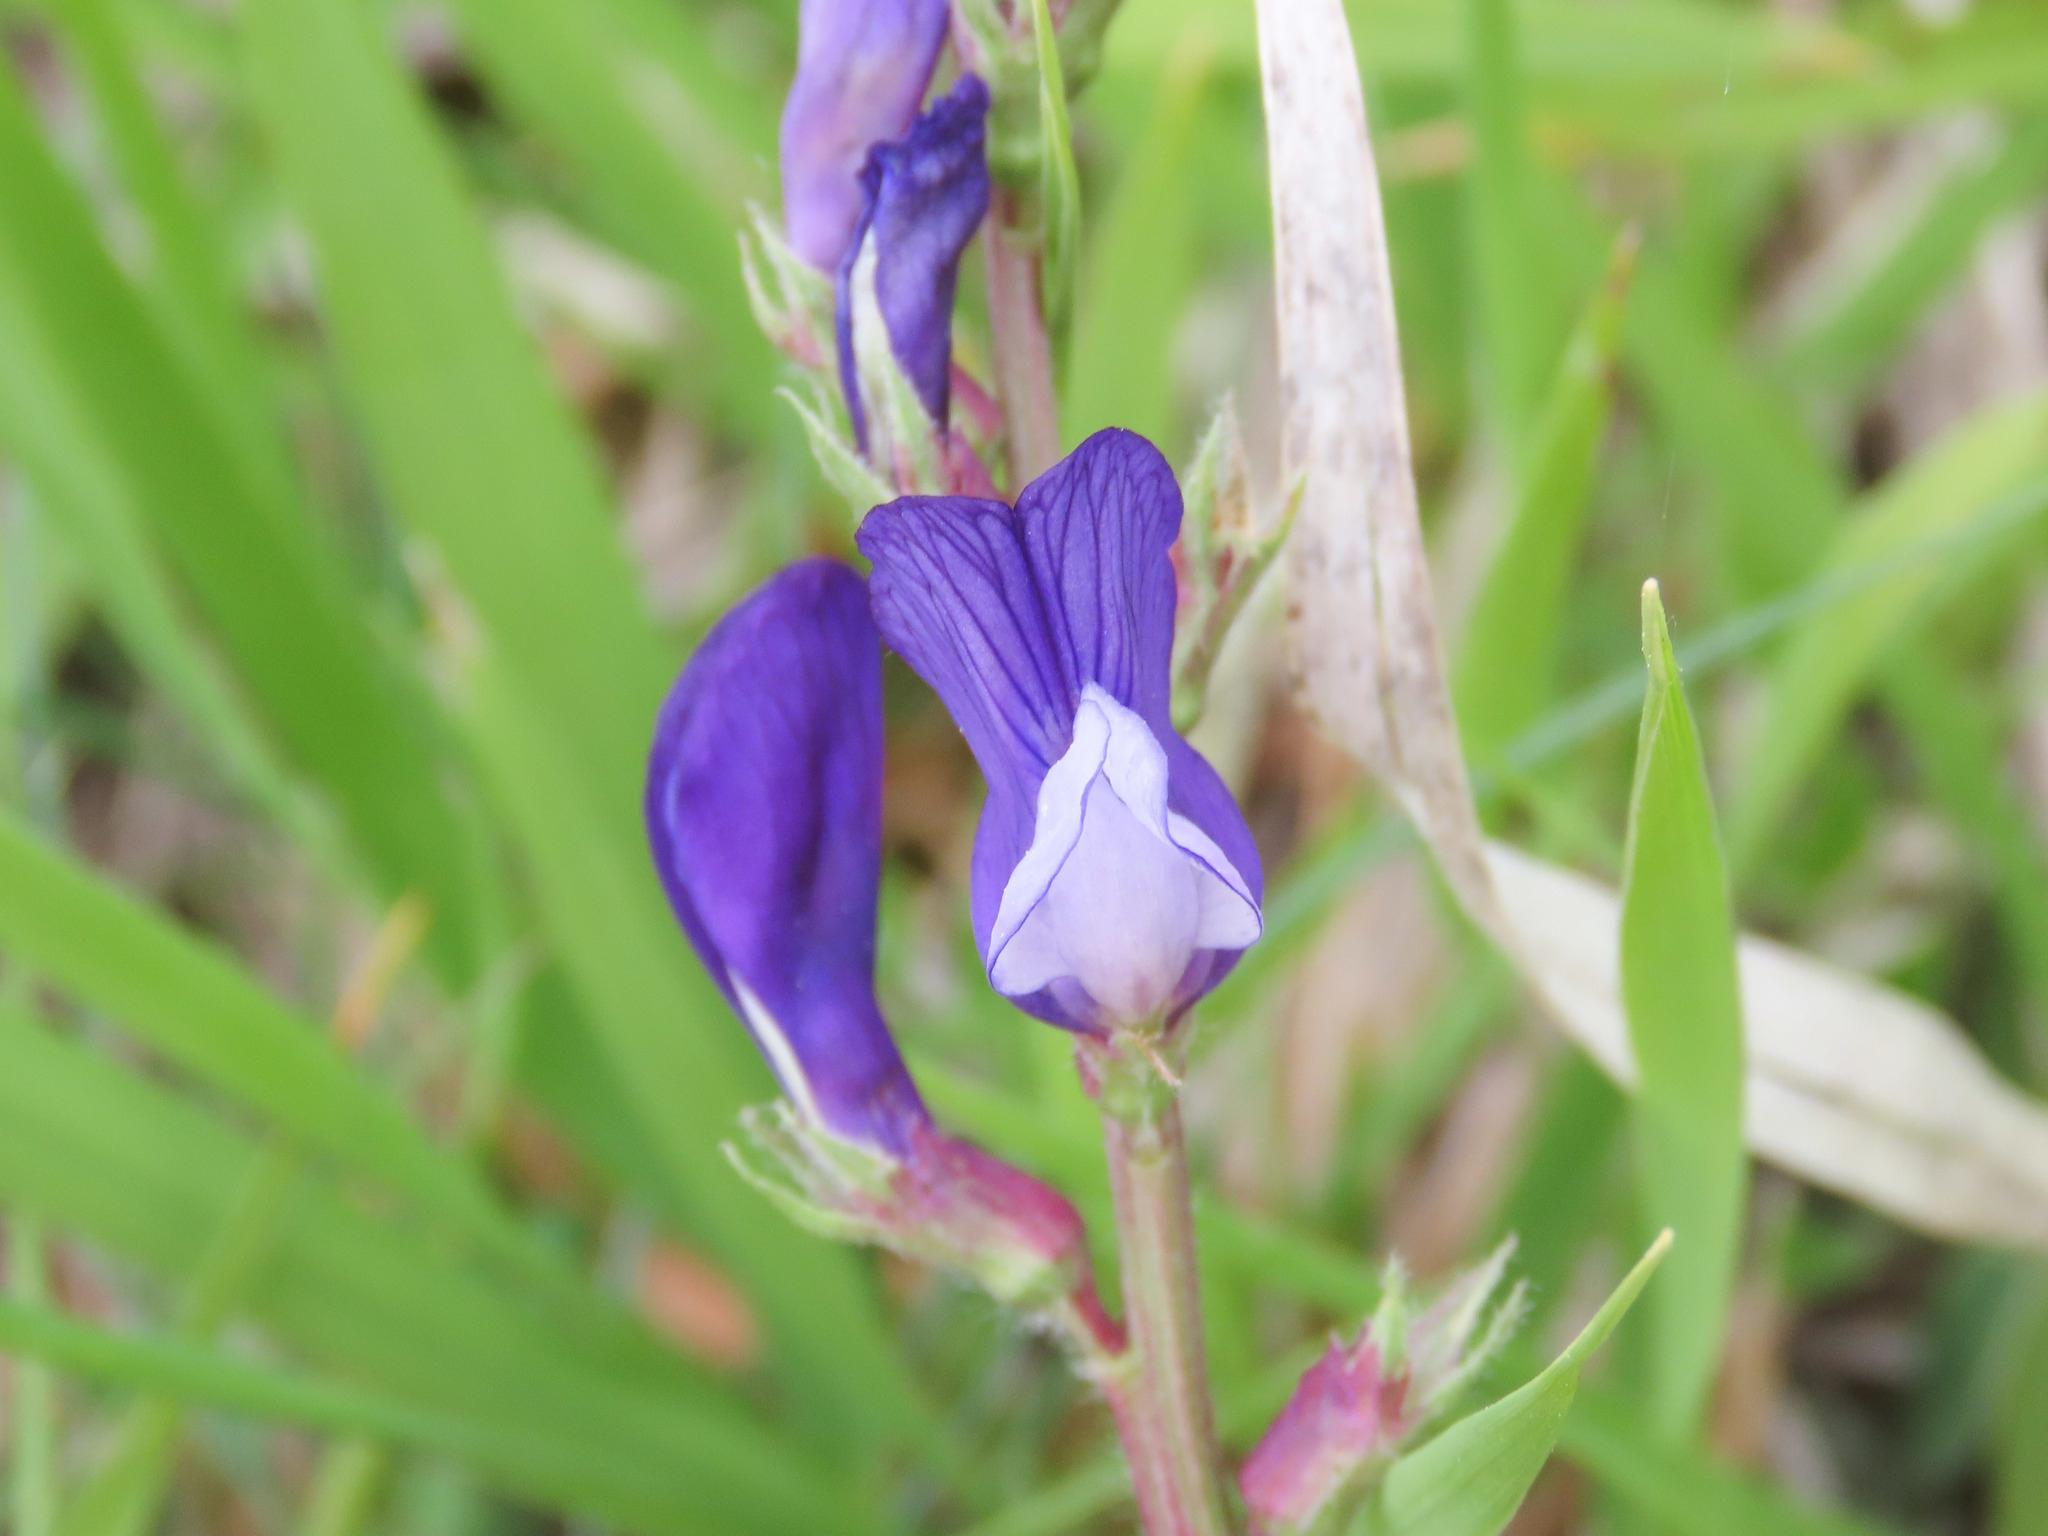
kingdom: Plantae
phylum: Tracheophyta
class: Magnoliopsida
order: Fabales
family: Fabaceae
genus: Vicia
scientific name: Vicia onobrychioides
